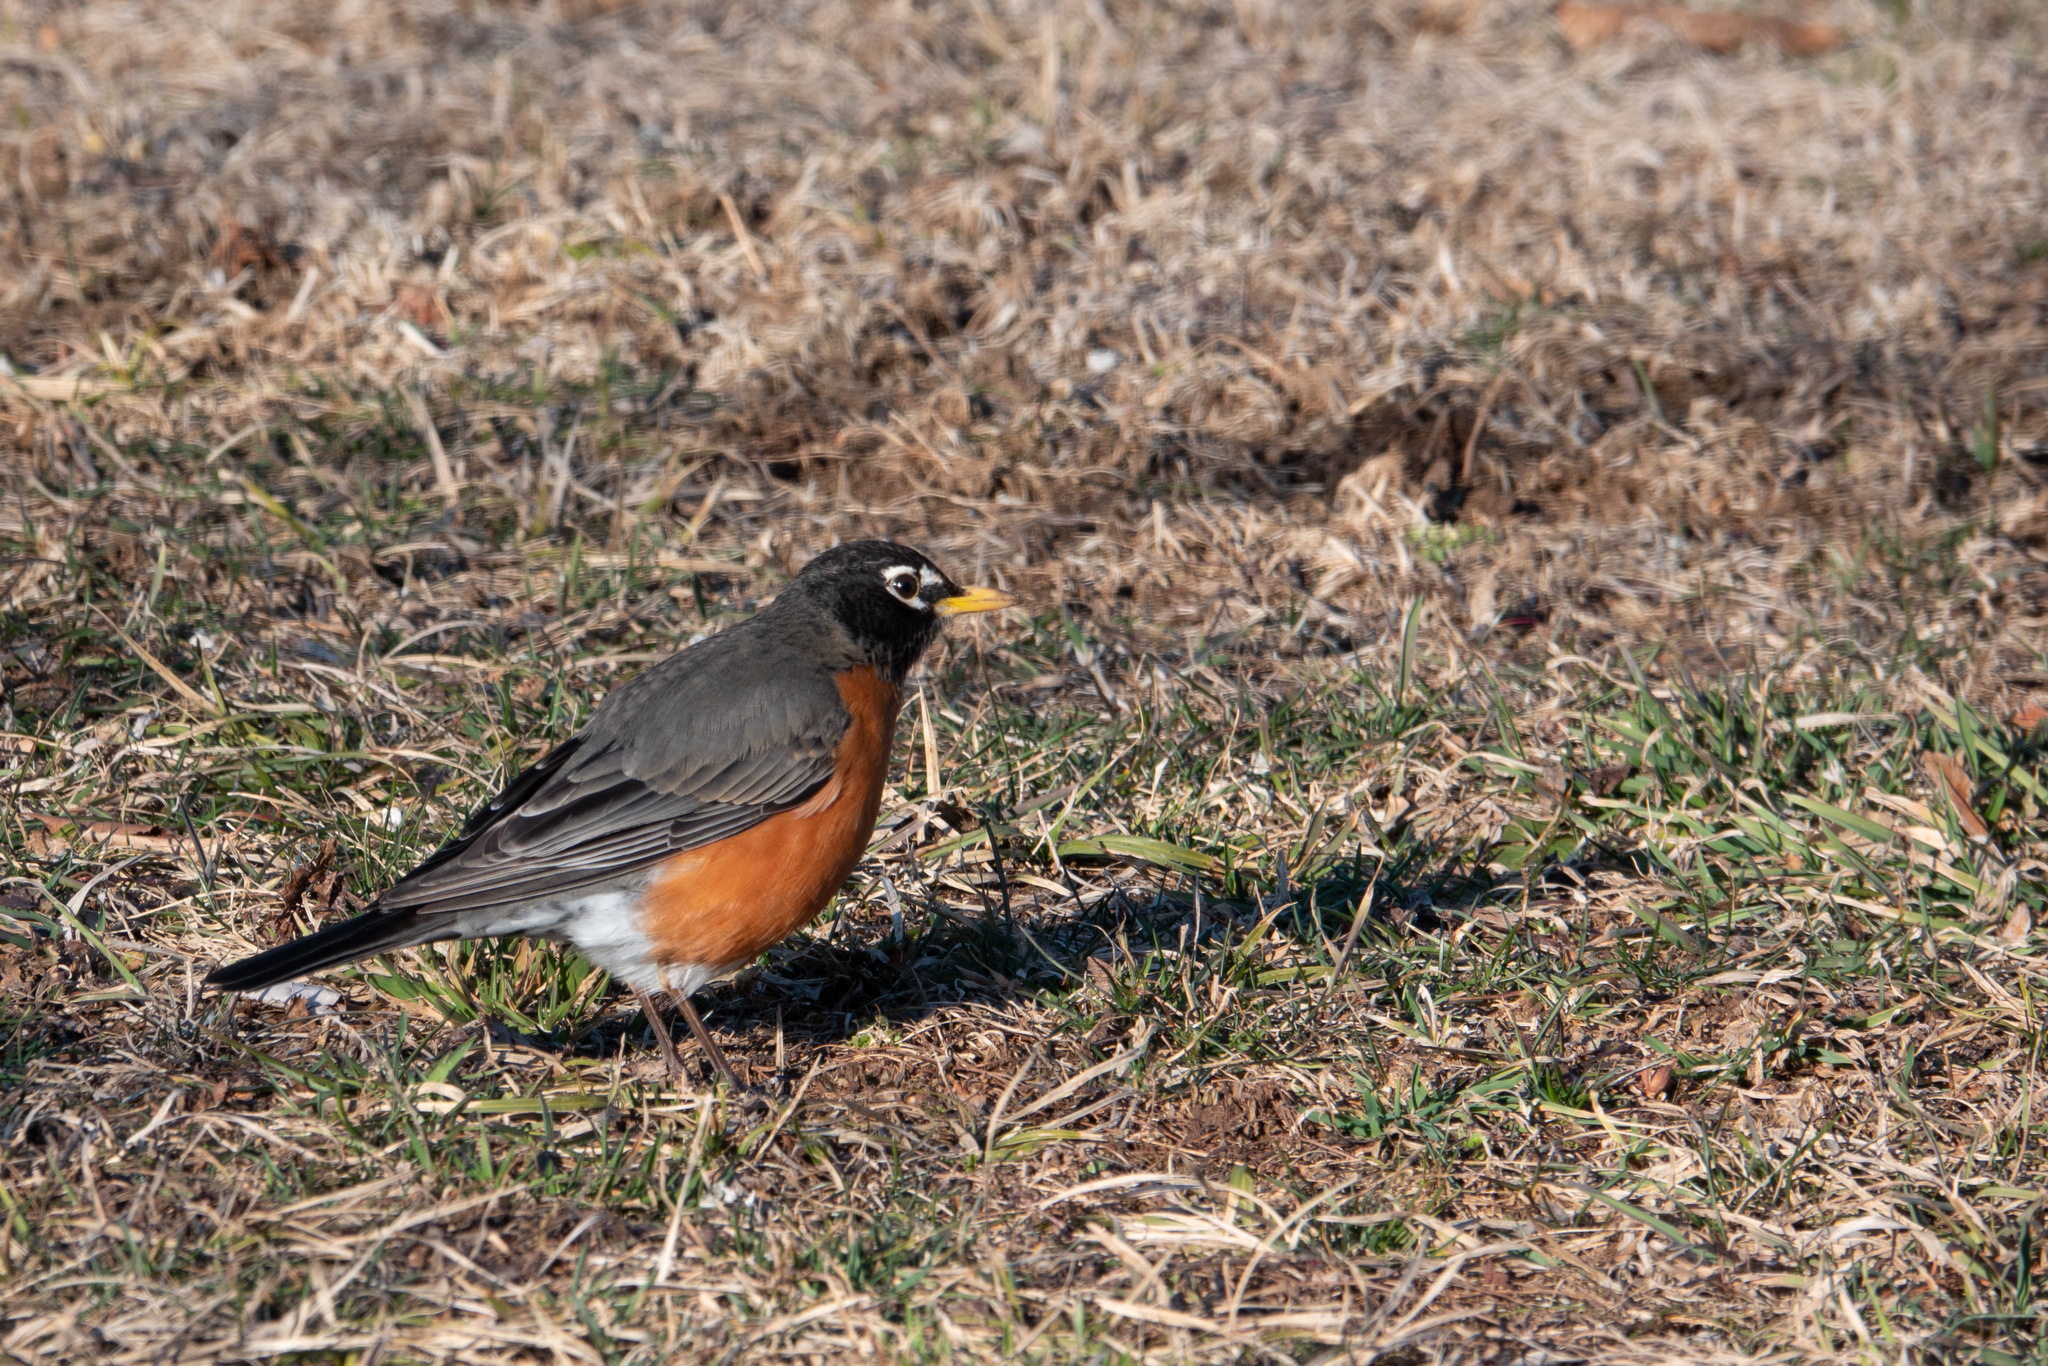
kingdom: Animalia
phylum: Chordata
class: Aves
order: Passeriformes
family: Turdidae
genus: Turdus
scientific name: Turdus migratorius
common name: American robin
